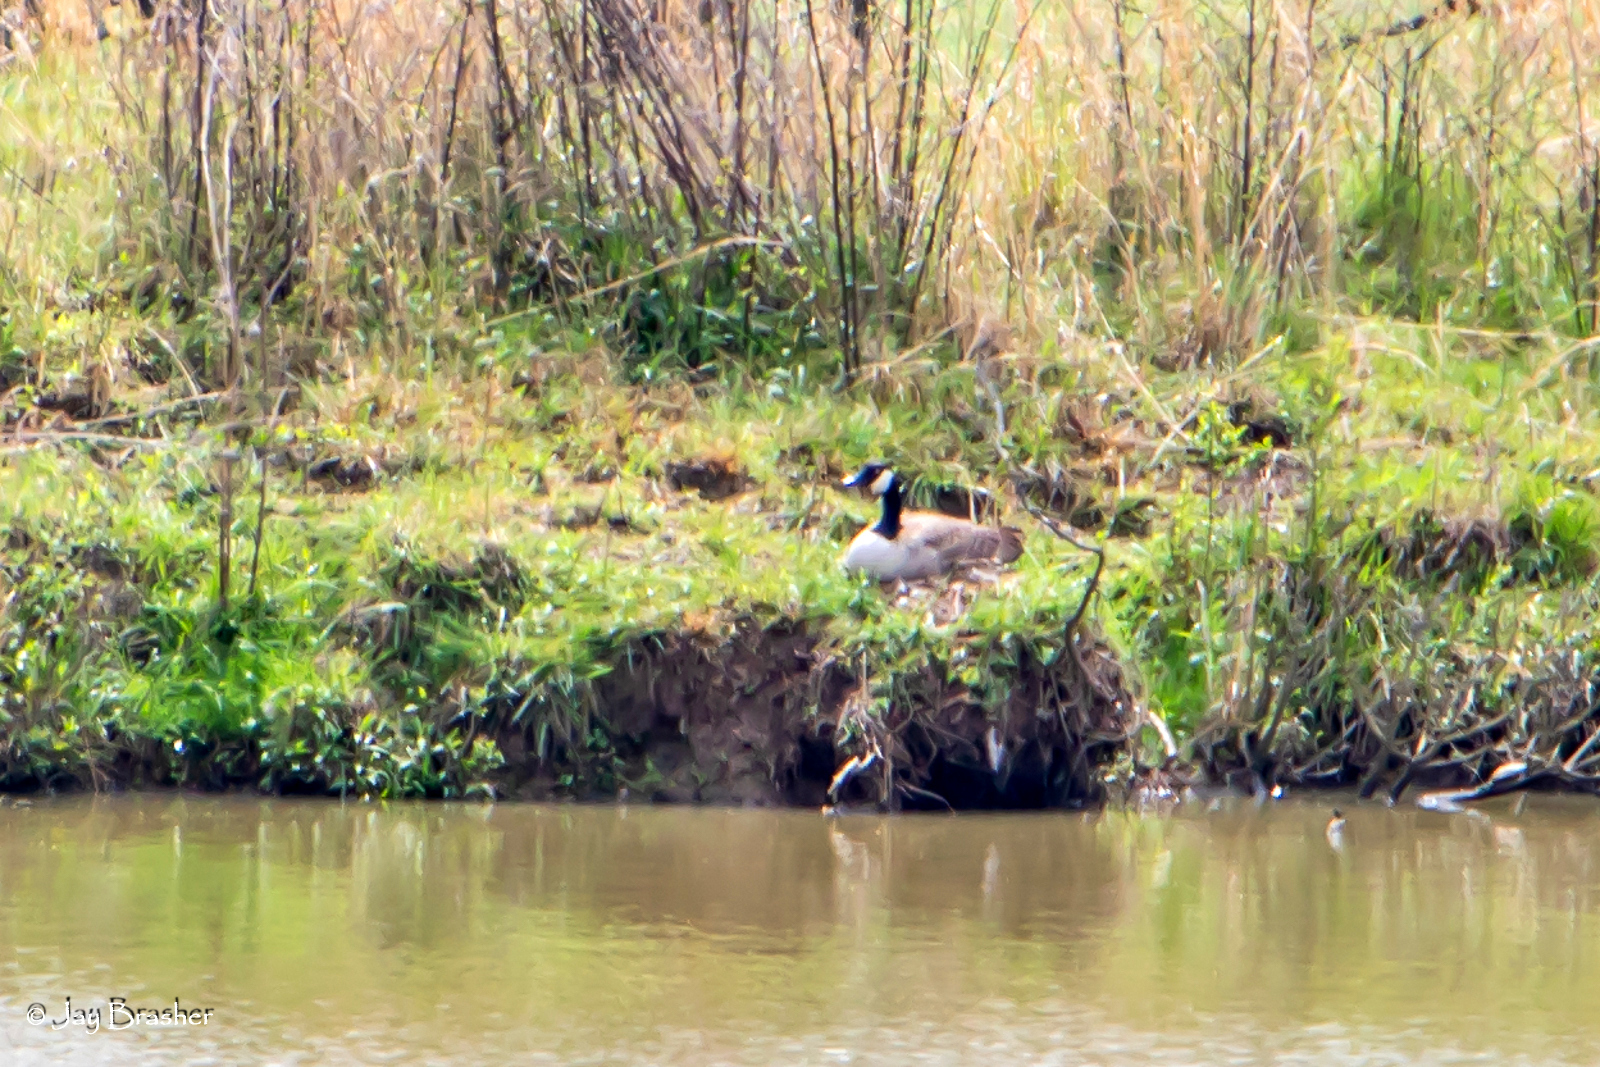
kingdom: Animalia
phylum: Chordata
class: Aves
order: Anseriformes
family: Anatidae
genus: Branta
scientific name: Branta canadensis
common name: Canada goose
